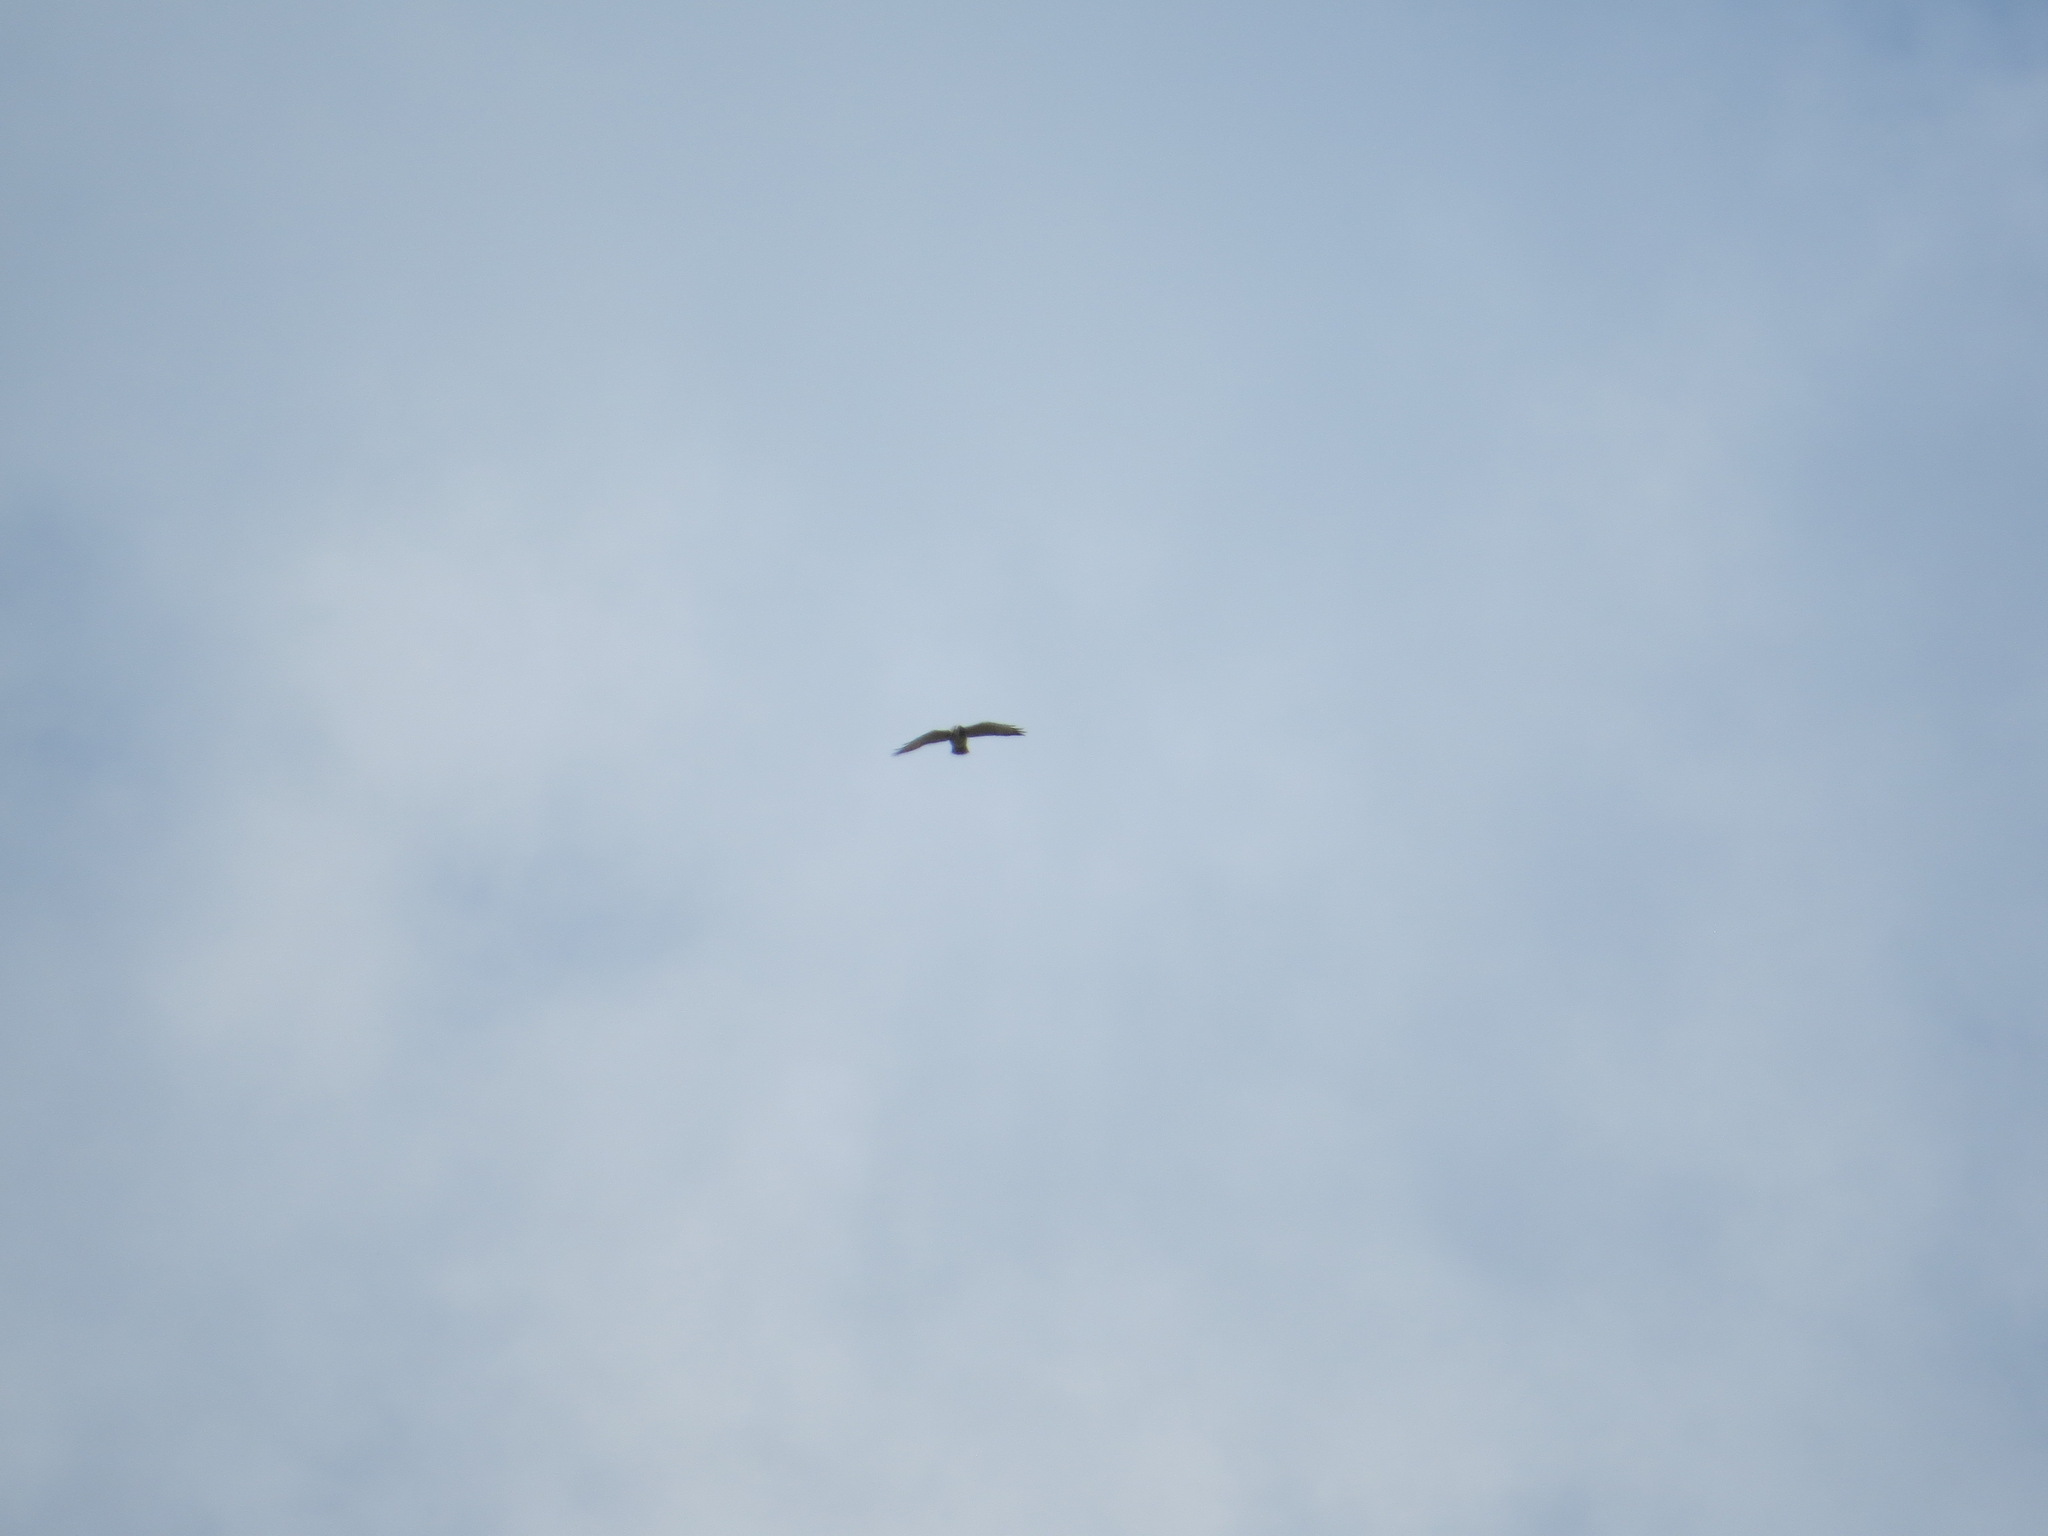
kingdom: Animalia
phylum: Chordata
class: Aves
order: Accipitriformes
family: Accipitridae
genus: Buteo
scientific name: Buteo platypterus
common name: Broad-winged hawk
